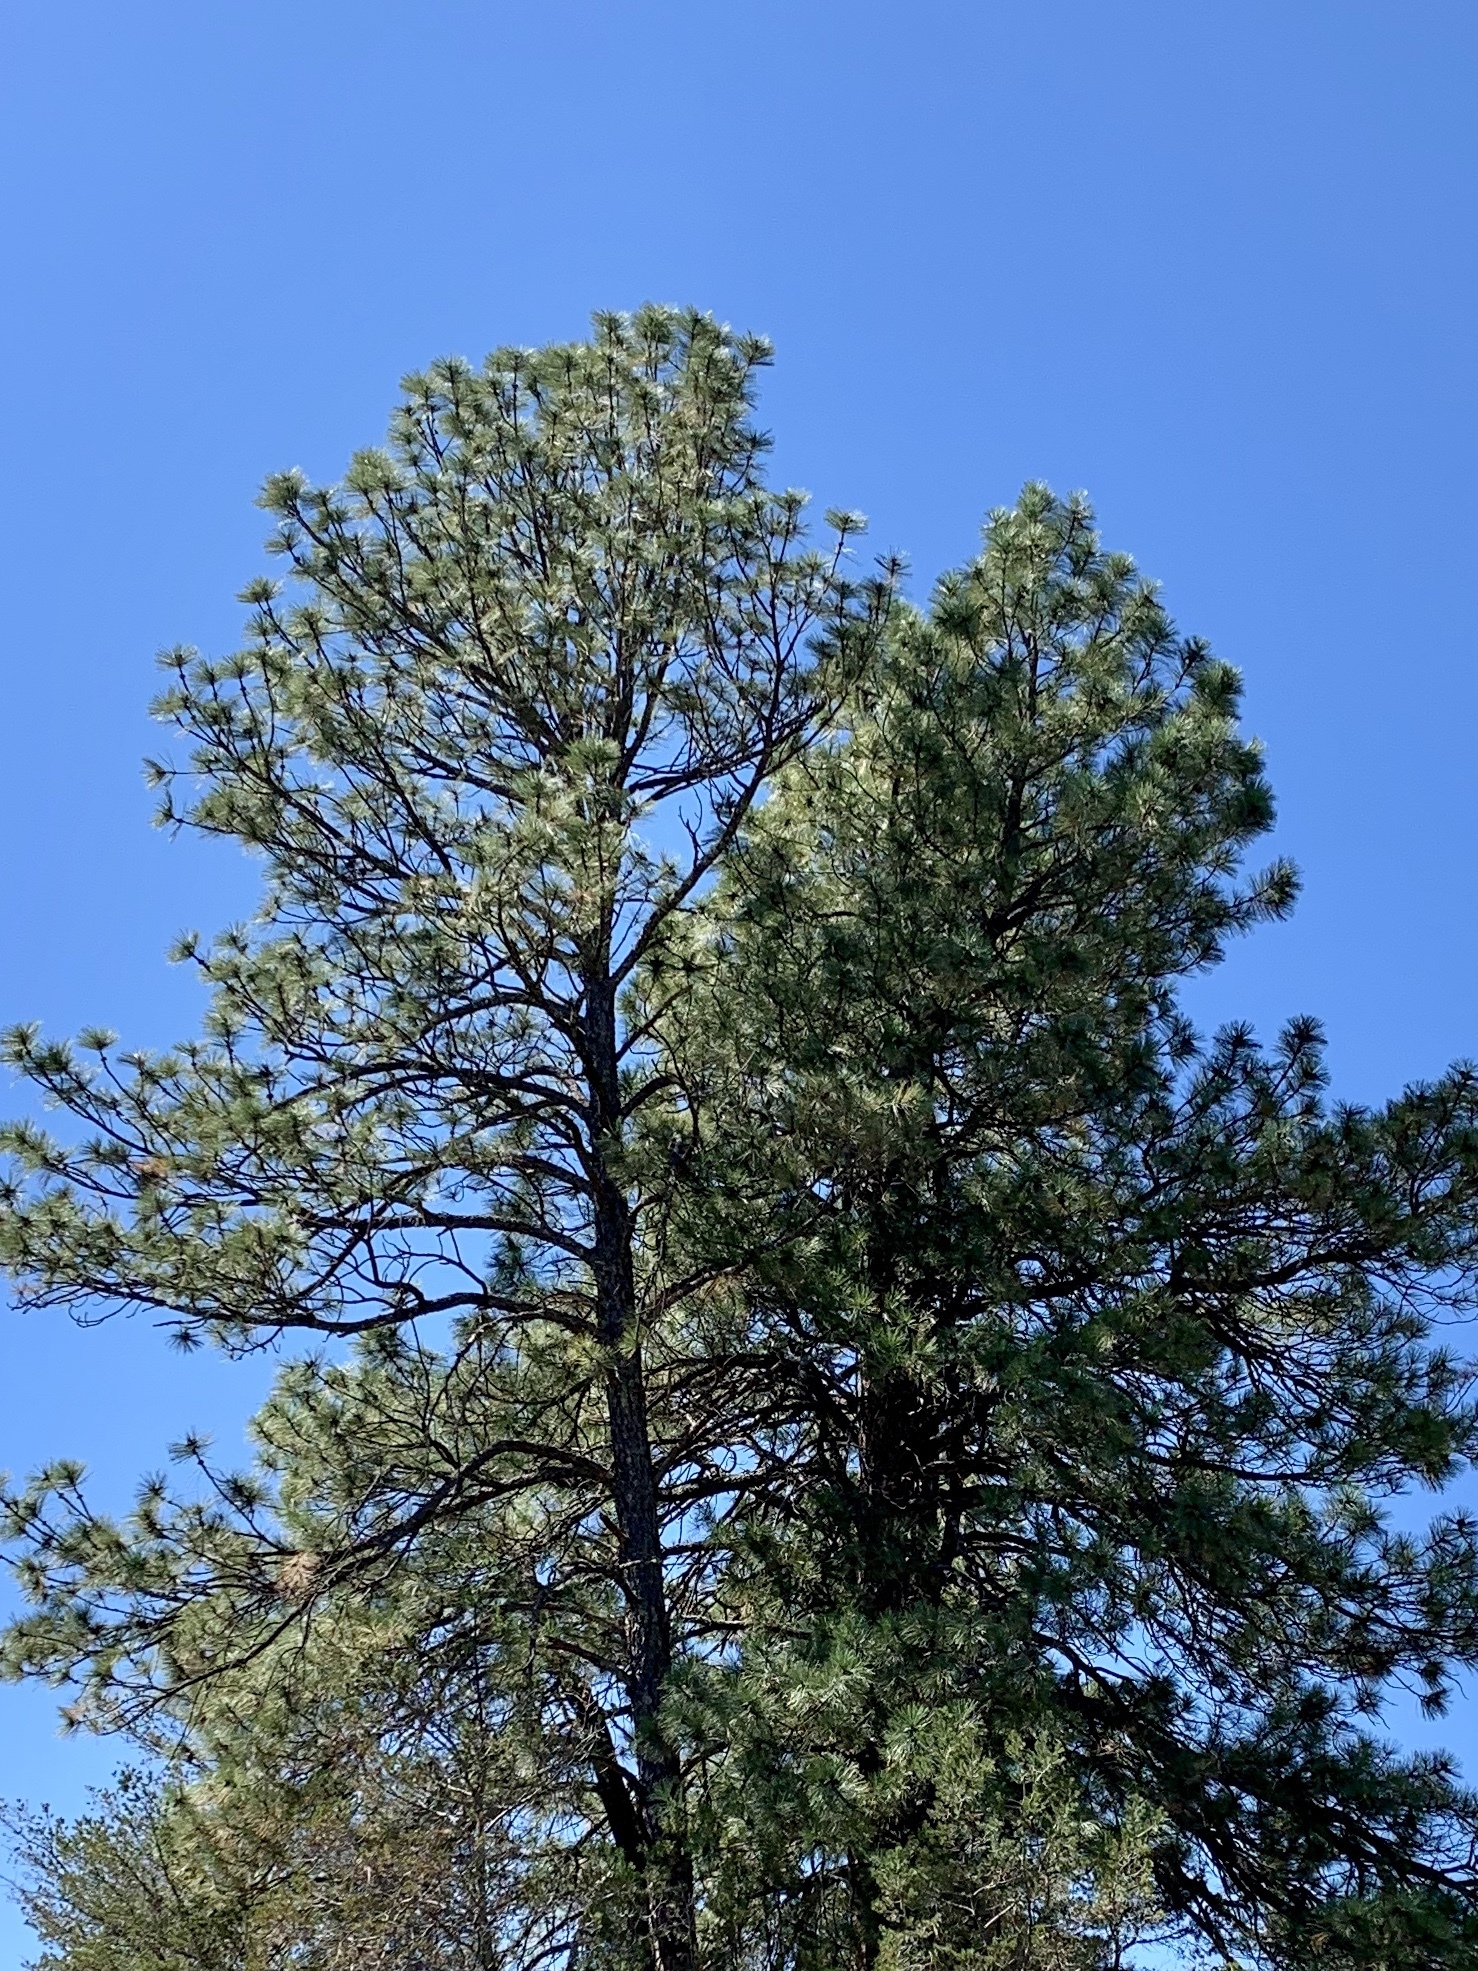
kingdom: Plantae
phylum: Tracheophyta
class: Pinopsida
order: Pinales
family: Pinaceae
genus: Pinus
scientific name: Pinus ponderosa
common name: Western yellow-pine
